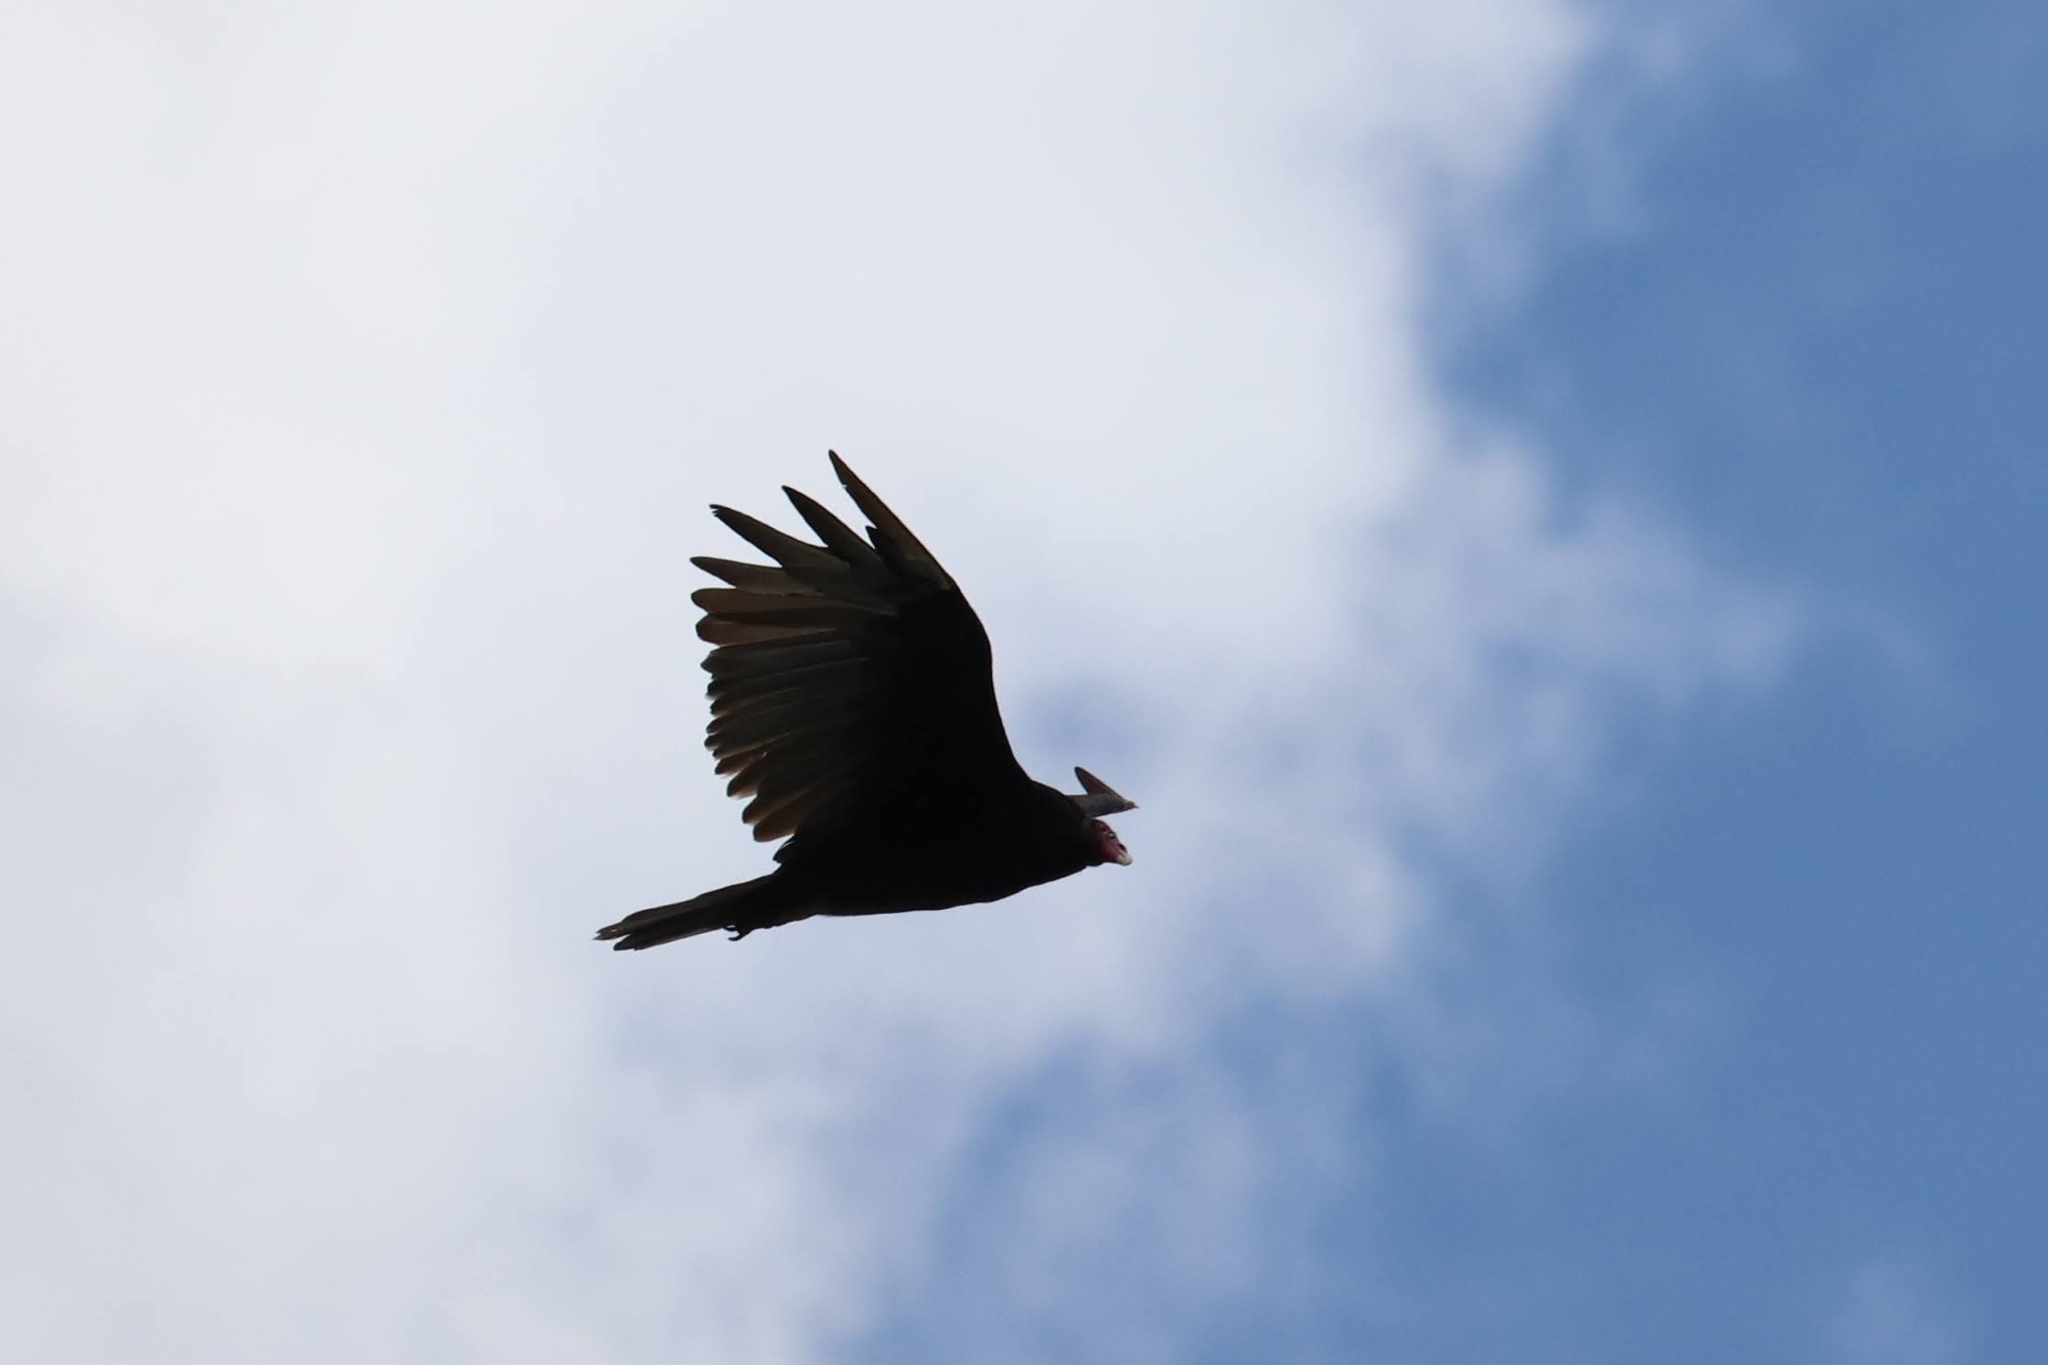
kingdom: Animalia
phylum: Chordata
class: Aves
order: Accipitriformes
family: Cathartidae
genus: Cathartes
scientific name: Cathartes aura
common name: Turkey vulture
